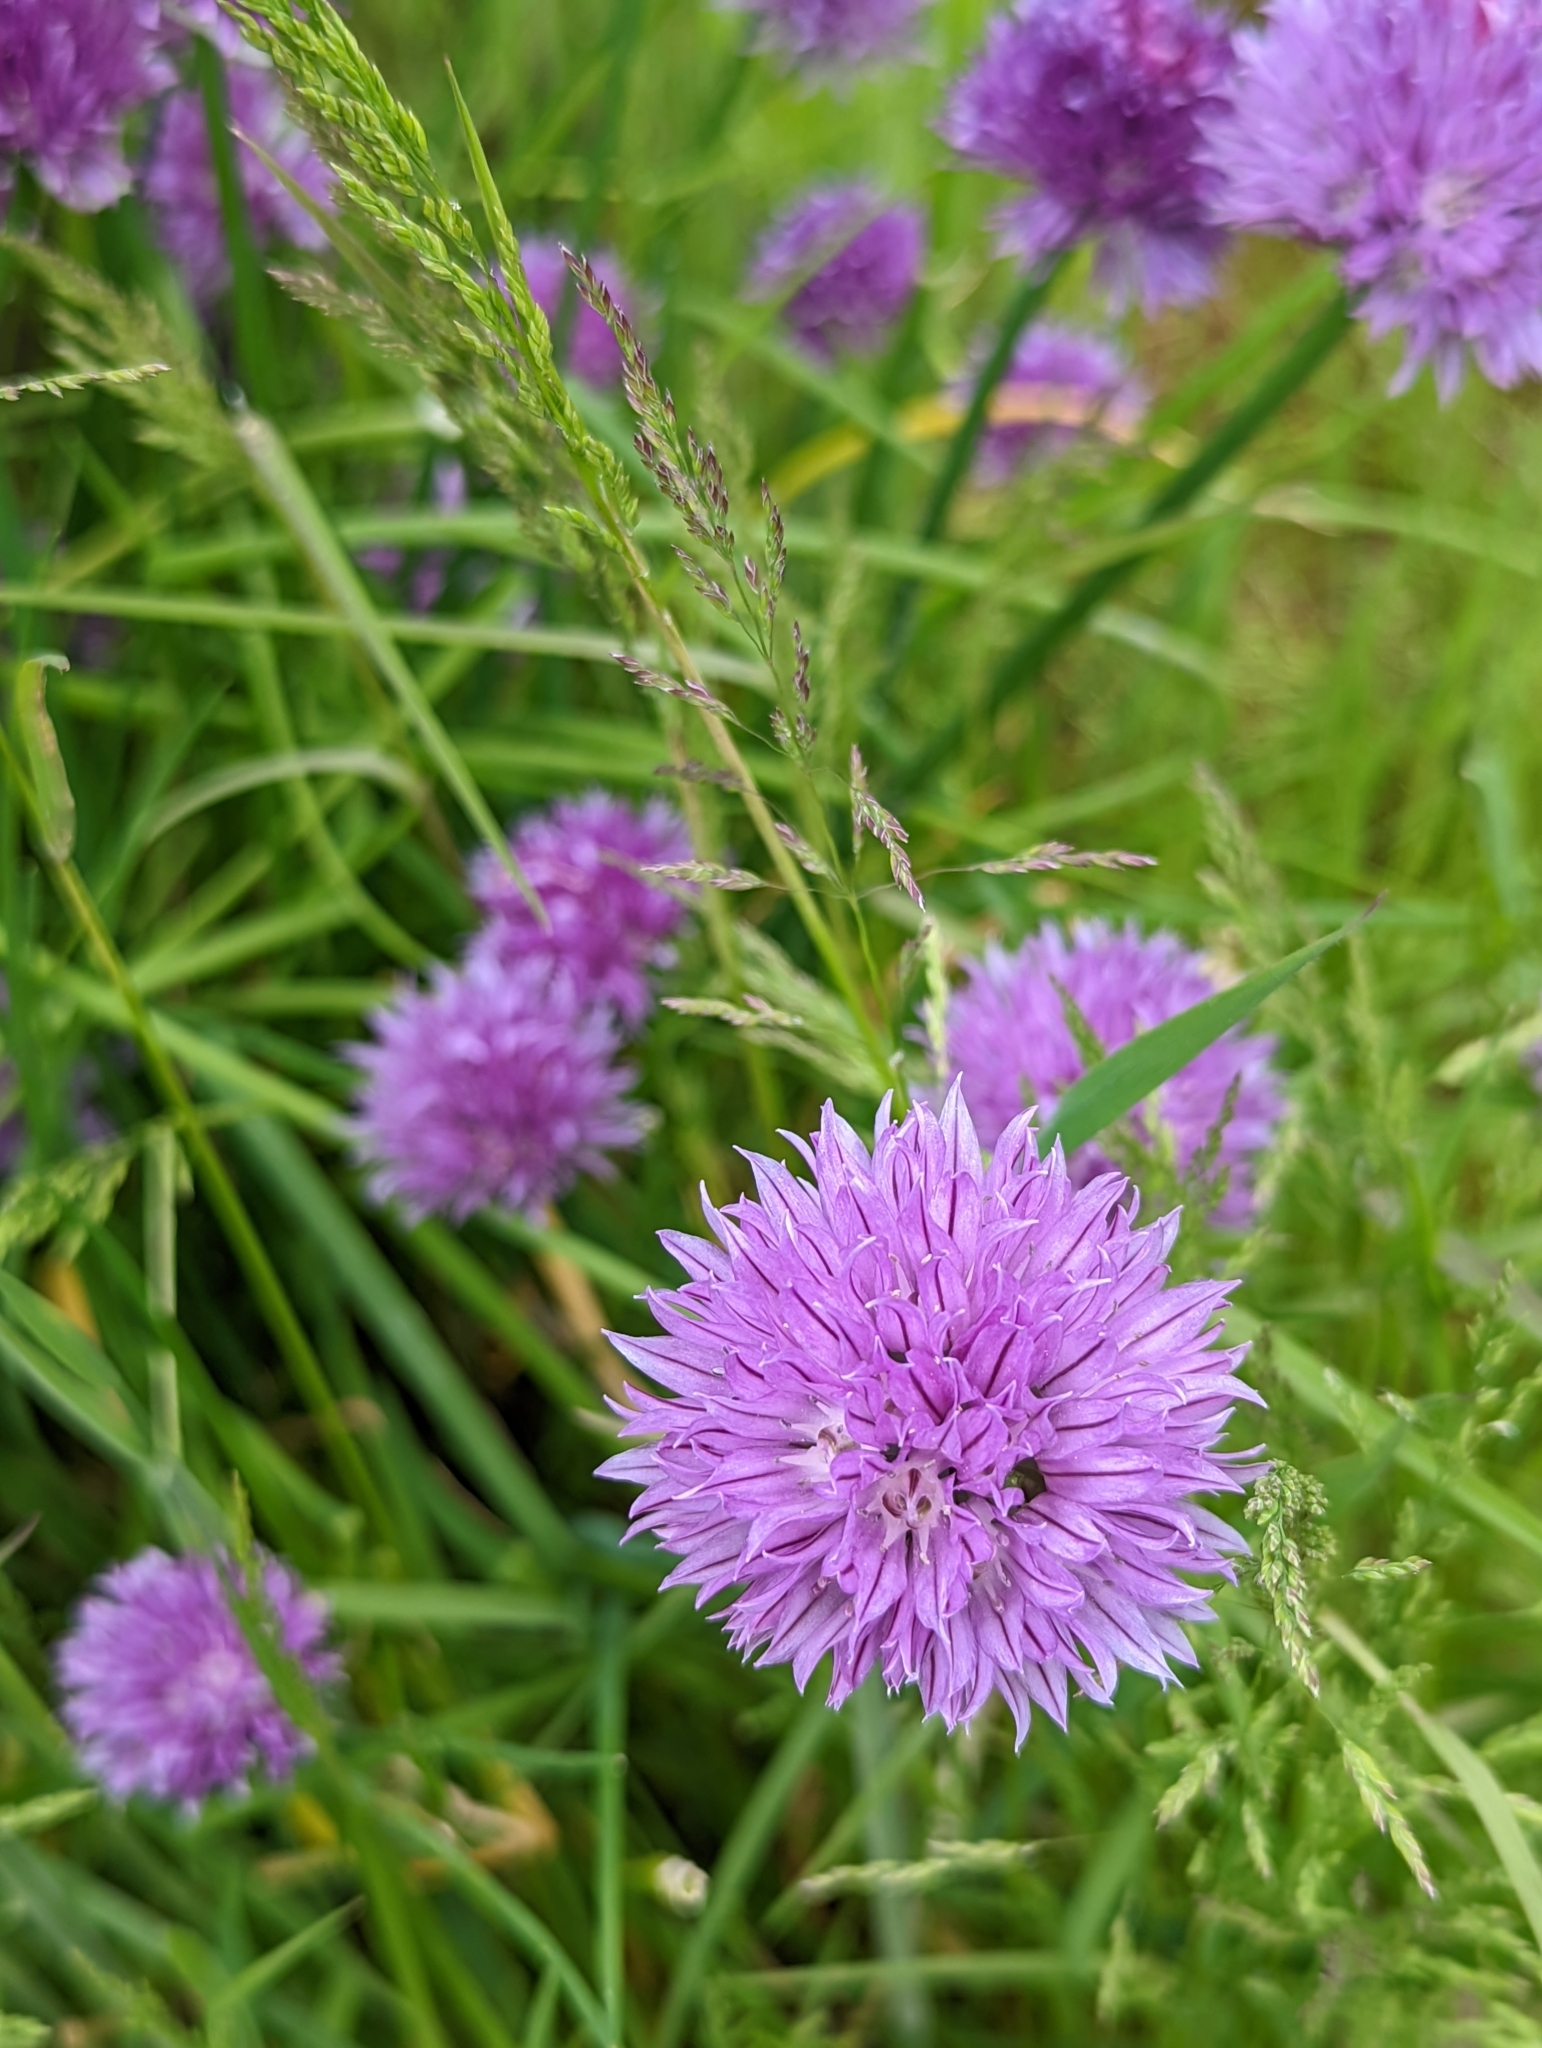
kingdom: Plantae
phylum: Tracheophyta
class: Liliopsida
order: Asparagales
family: Amaryllidaceae
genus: Allium
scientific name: Allium schoenoprasum
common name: Chives
